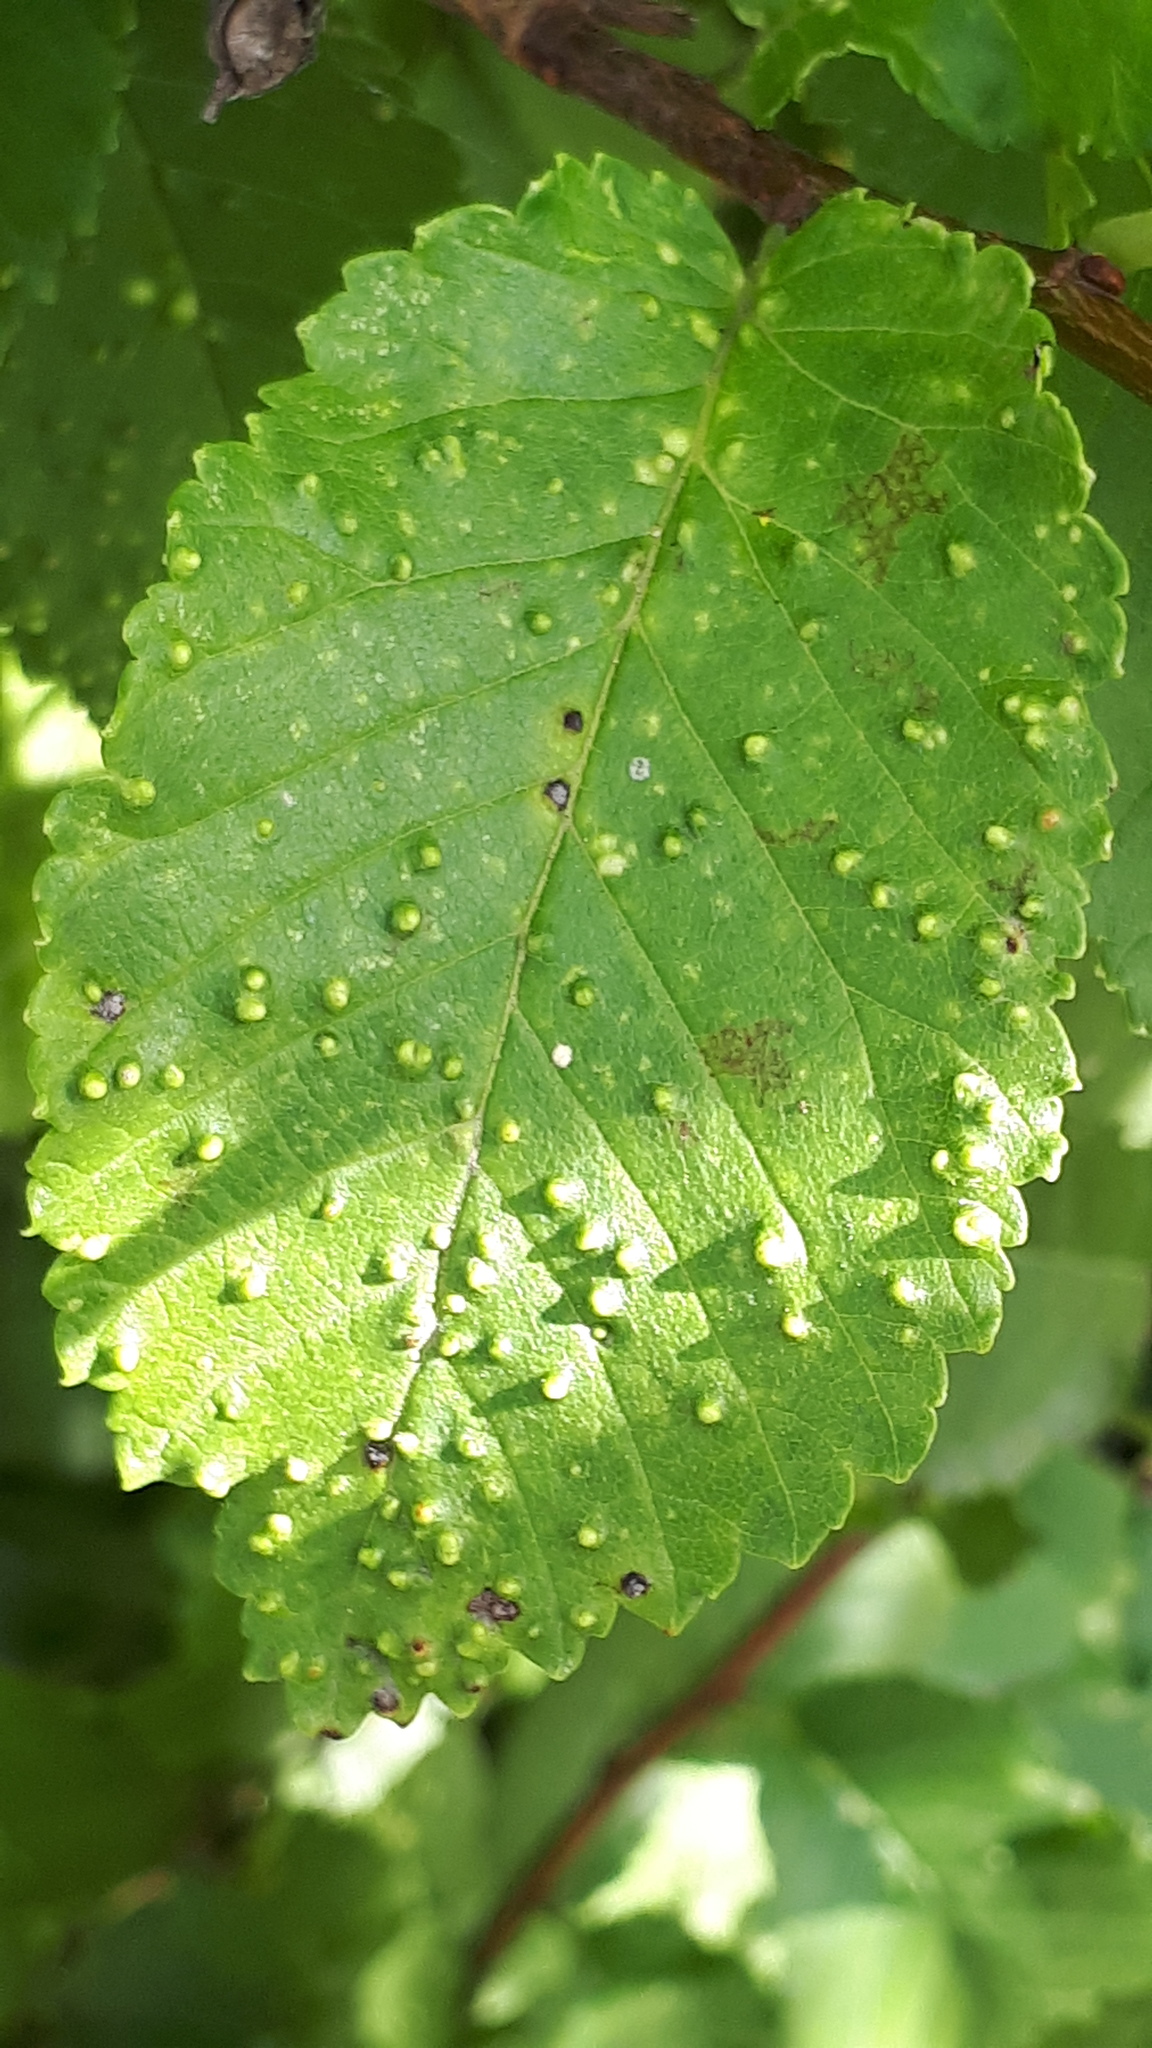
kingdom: Animalia
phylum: Arthropoda
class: Arachnida
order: Trombidiformes
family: Eriophyidae
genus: Aceria
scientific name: Aceria brevipunctata
